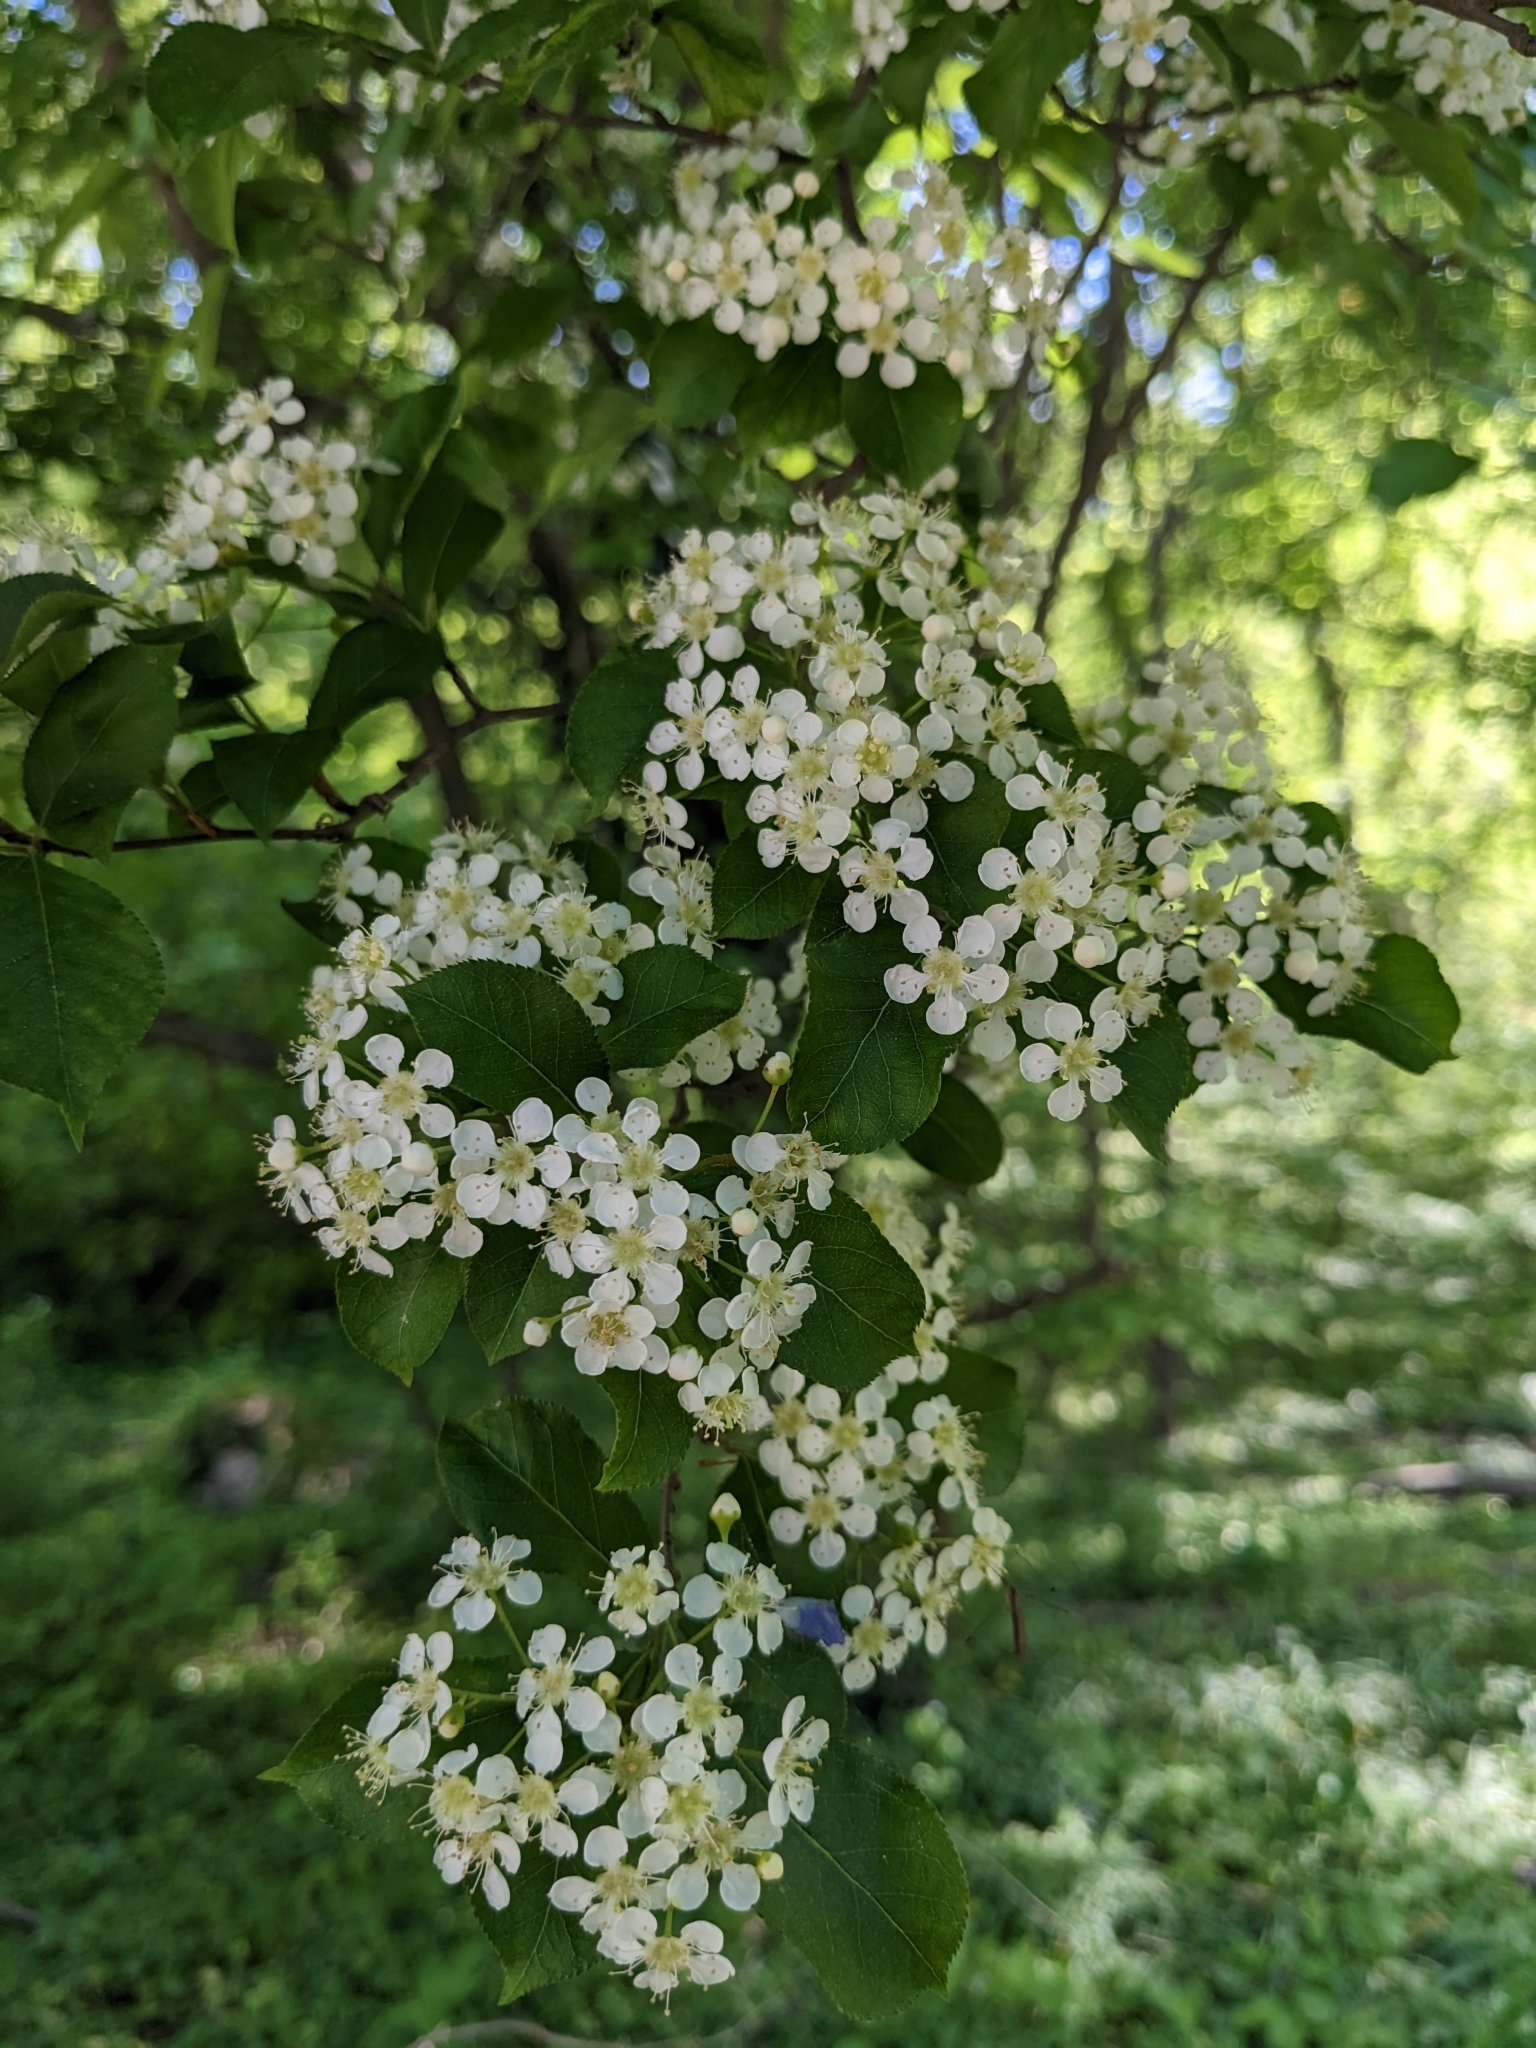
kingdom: Plantae
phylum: Tracheophyta
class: Magnoliopsida
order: Rosales
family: Rosaceae
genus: Pourthiaea
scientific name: Pourthiaea villosa
